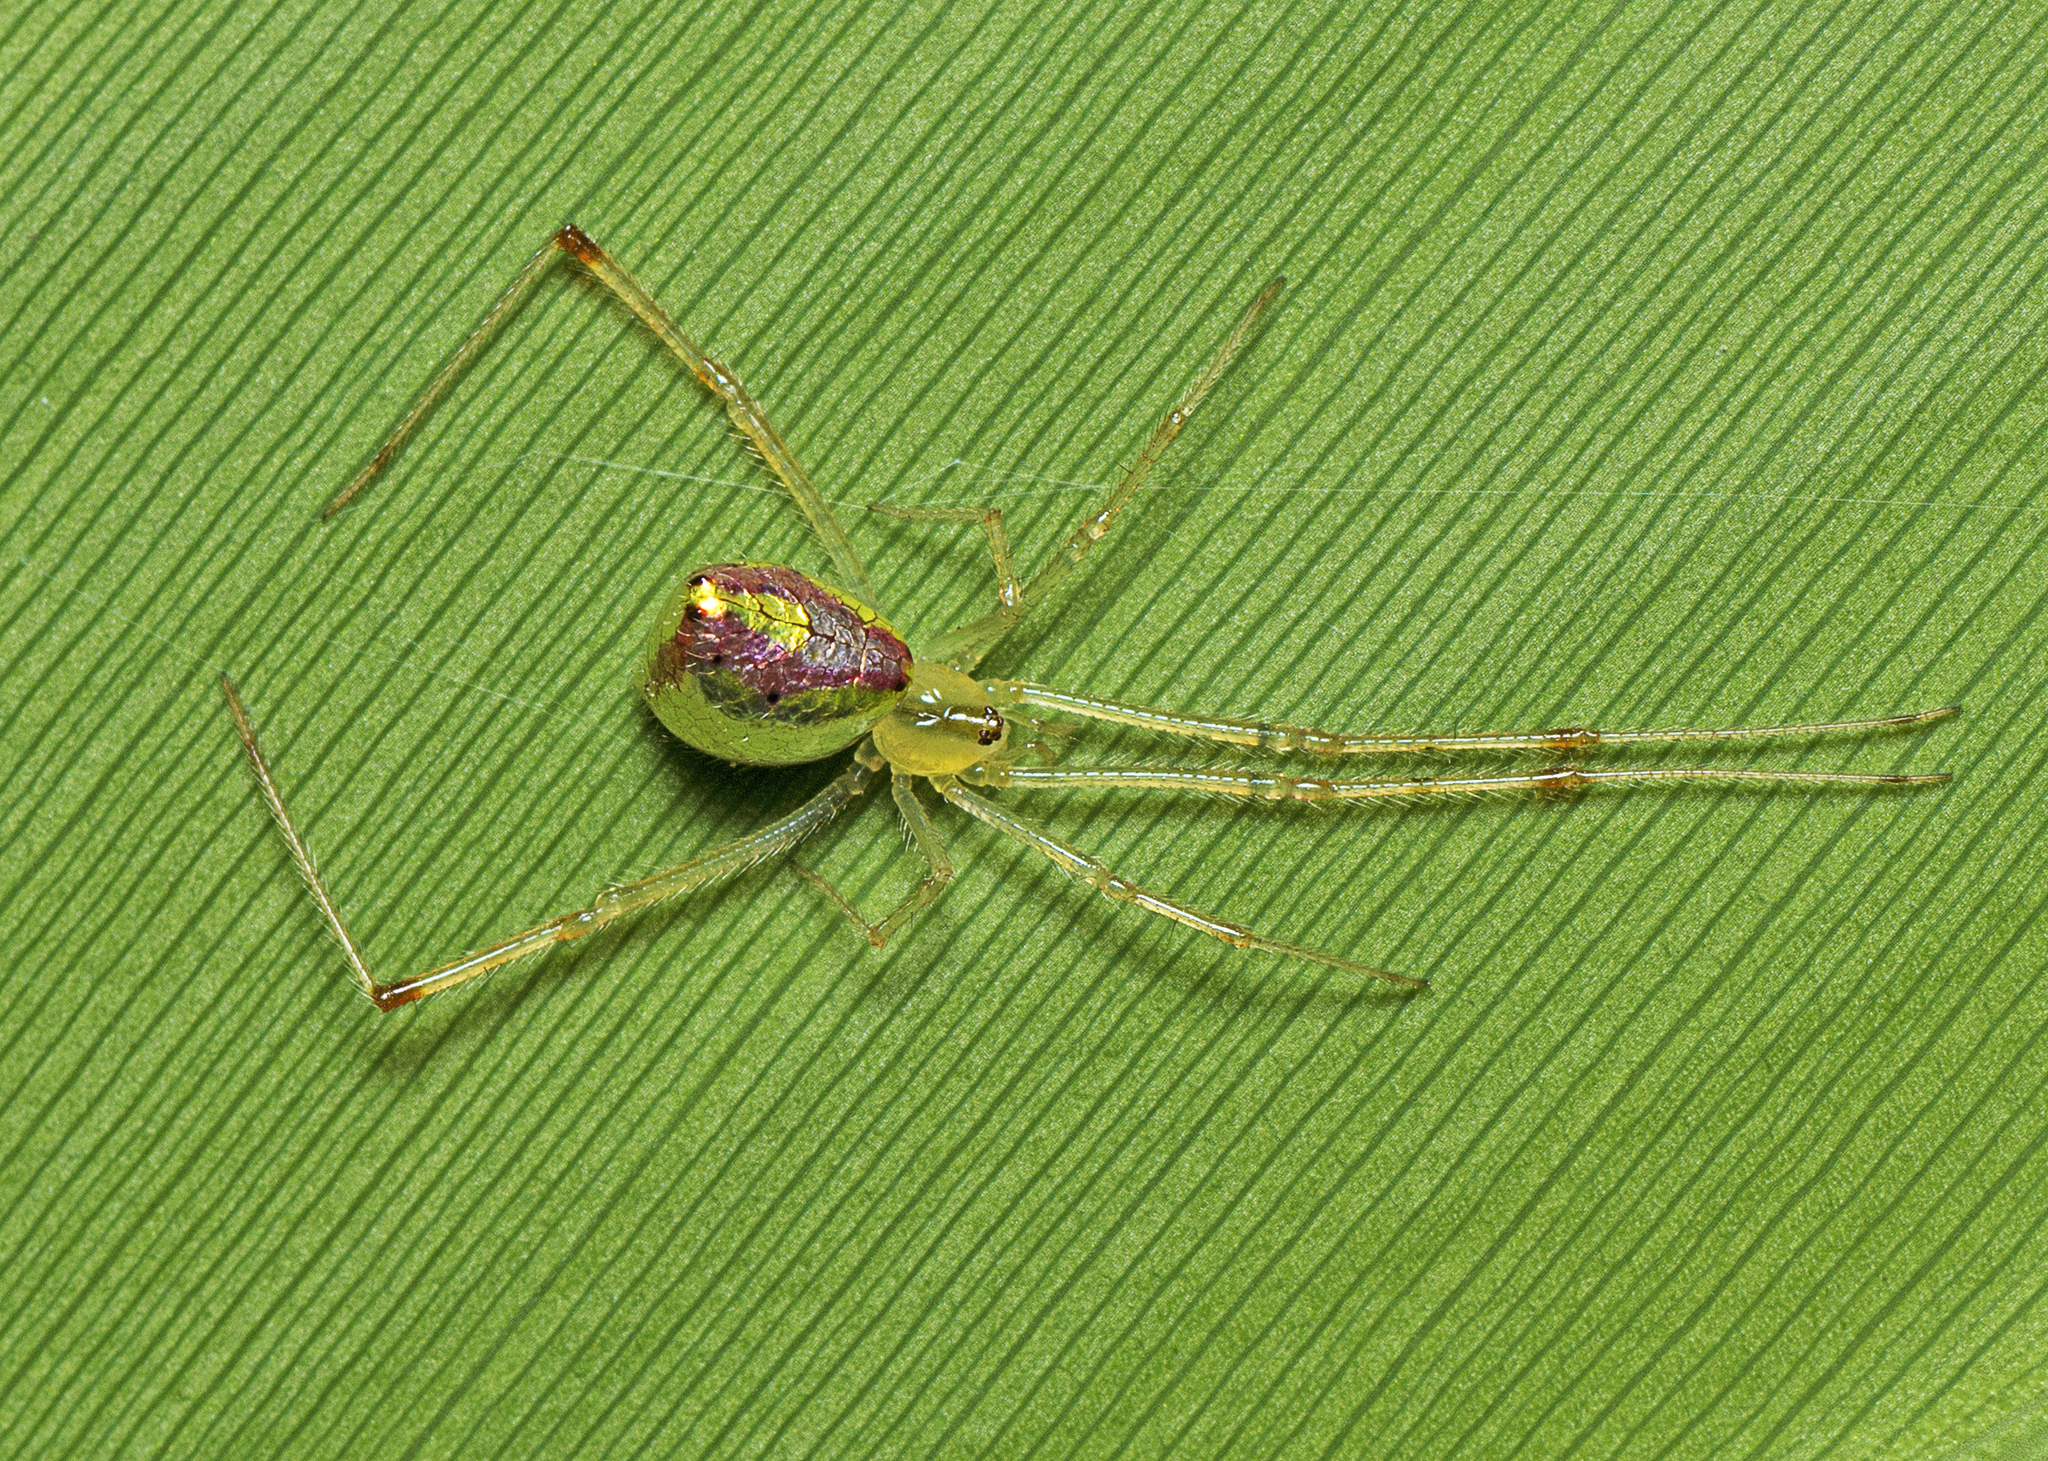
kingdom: Animalia
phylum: Arthropoda
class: Arachnida
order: Araneae
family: Theridiidae
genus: Thwaitesia
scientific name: Thwaitesia nigronodosa
